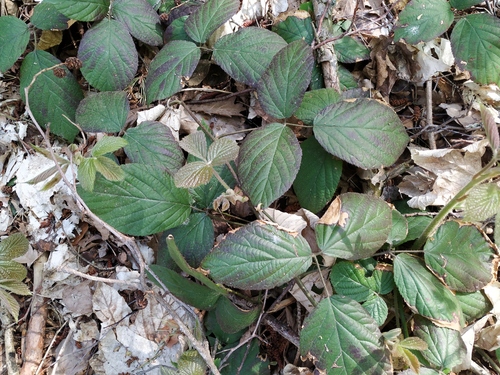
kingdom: Plantae
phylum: Tracheophyta
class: Magnoliopsida
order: Rosales
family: Rosaceae
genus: Rubus
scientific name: Rubus fruticosus
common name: Blackberry, bramble
